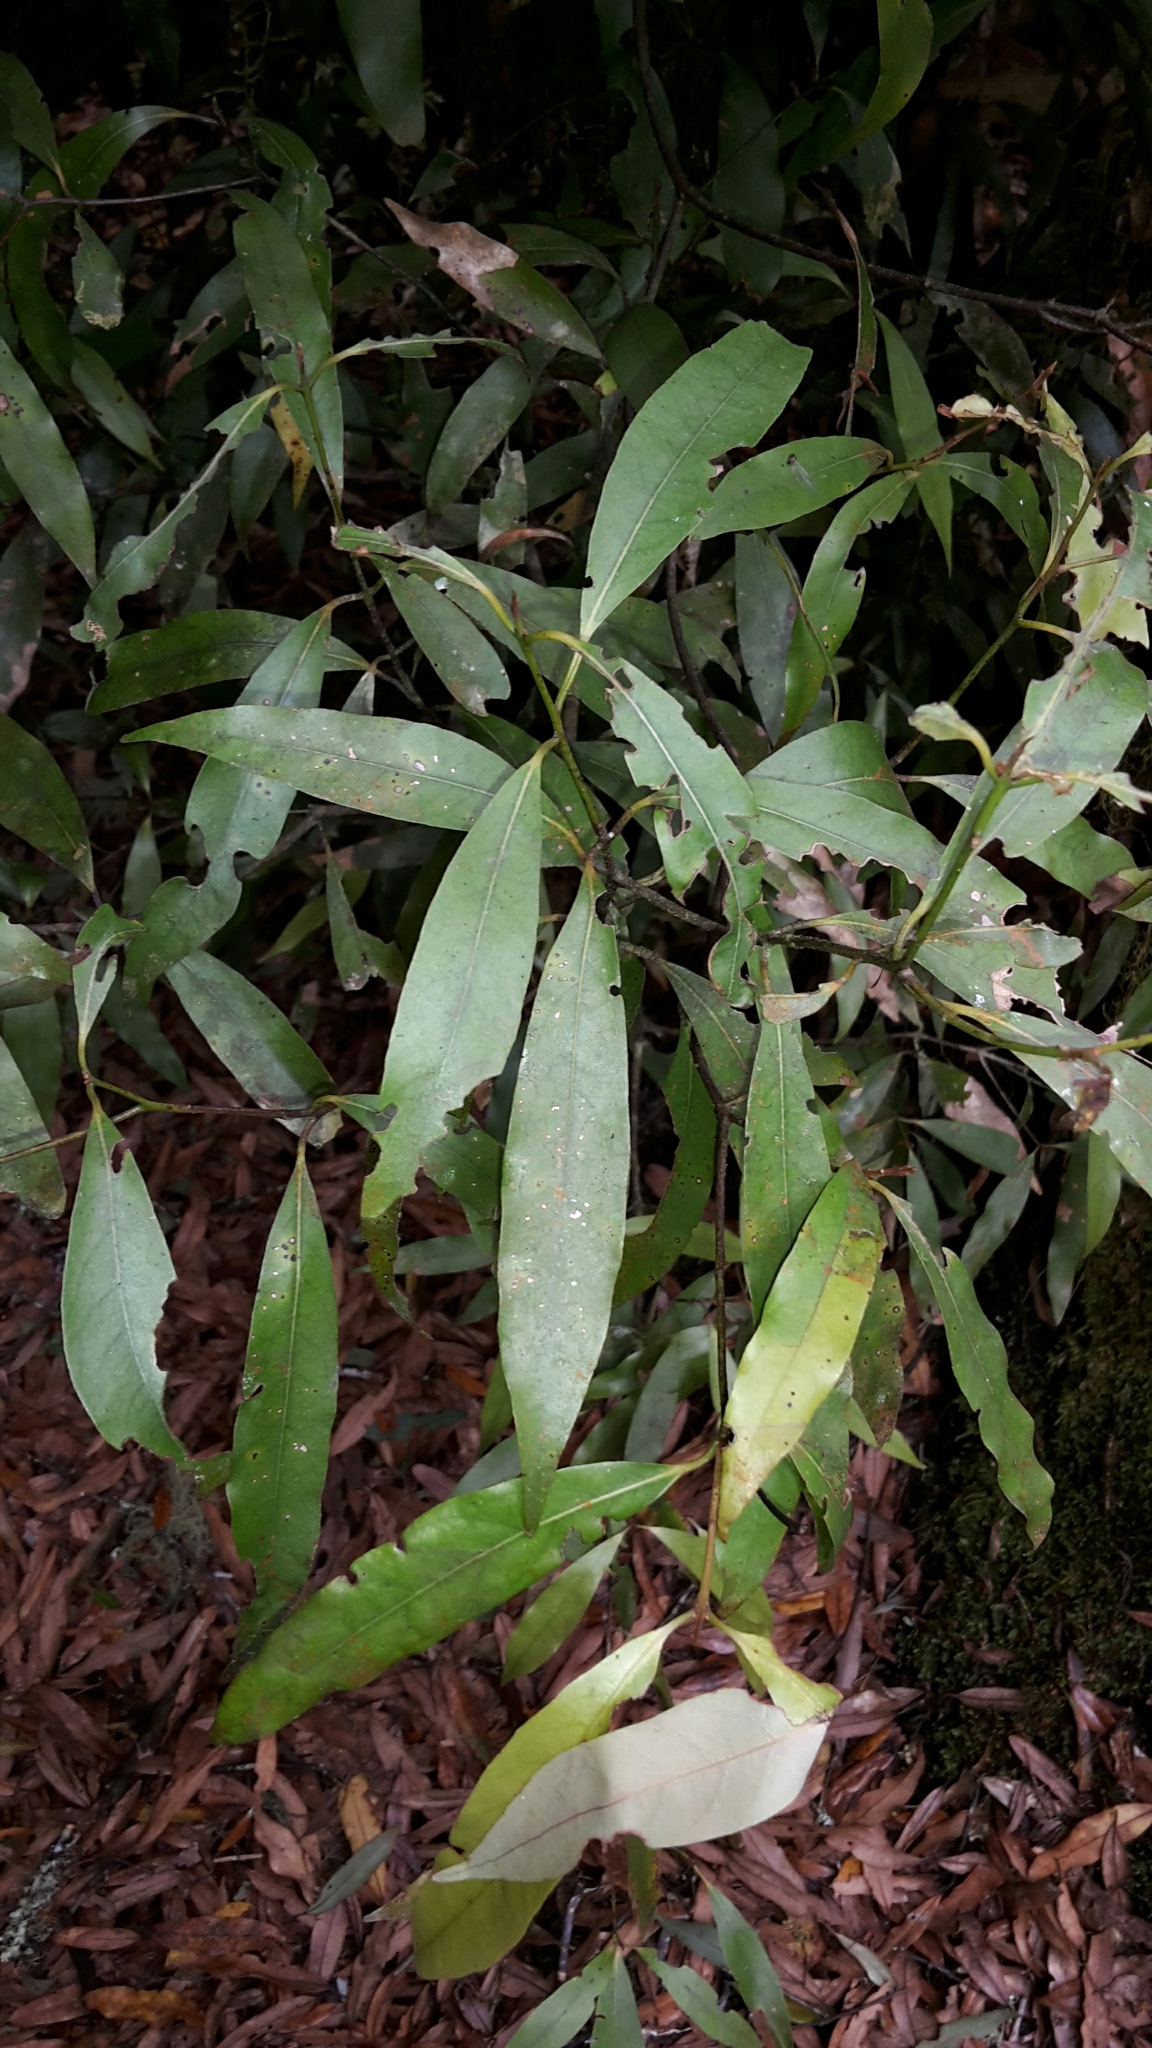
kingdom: Plantae
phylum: Tracheophyta
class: Magnoliopsida
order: Laurales
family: Lauraceae
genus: Beilschmiedia
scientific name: Beilschmiedia tawa
